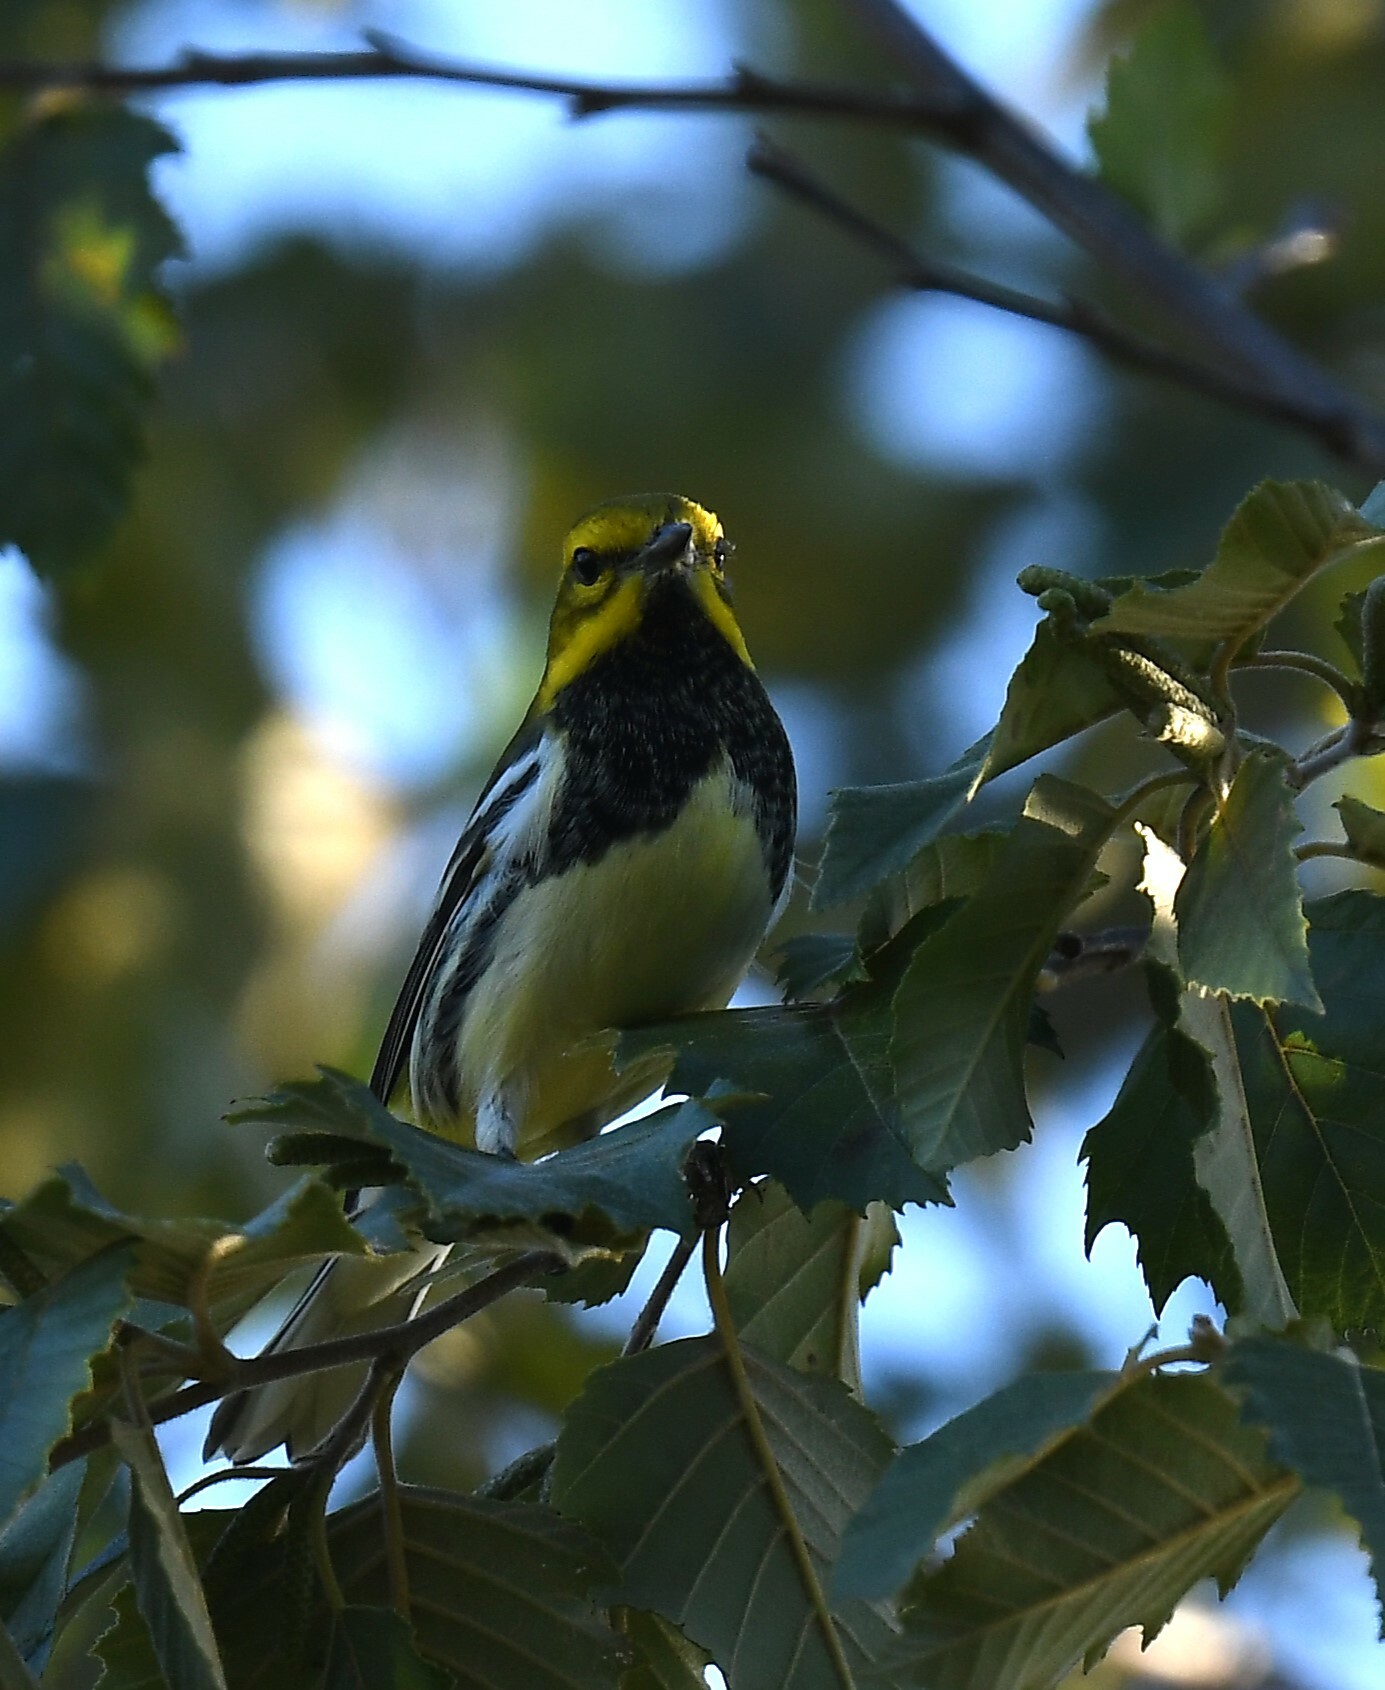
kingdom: Animalia
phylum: Chordata
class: Aves
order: Passeriformes
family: Parulidae
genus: Setophaga
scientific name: Setophaga virens
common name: Black-throated green warbler
